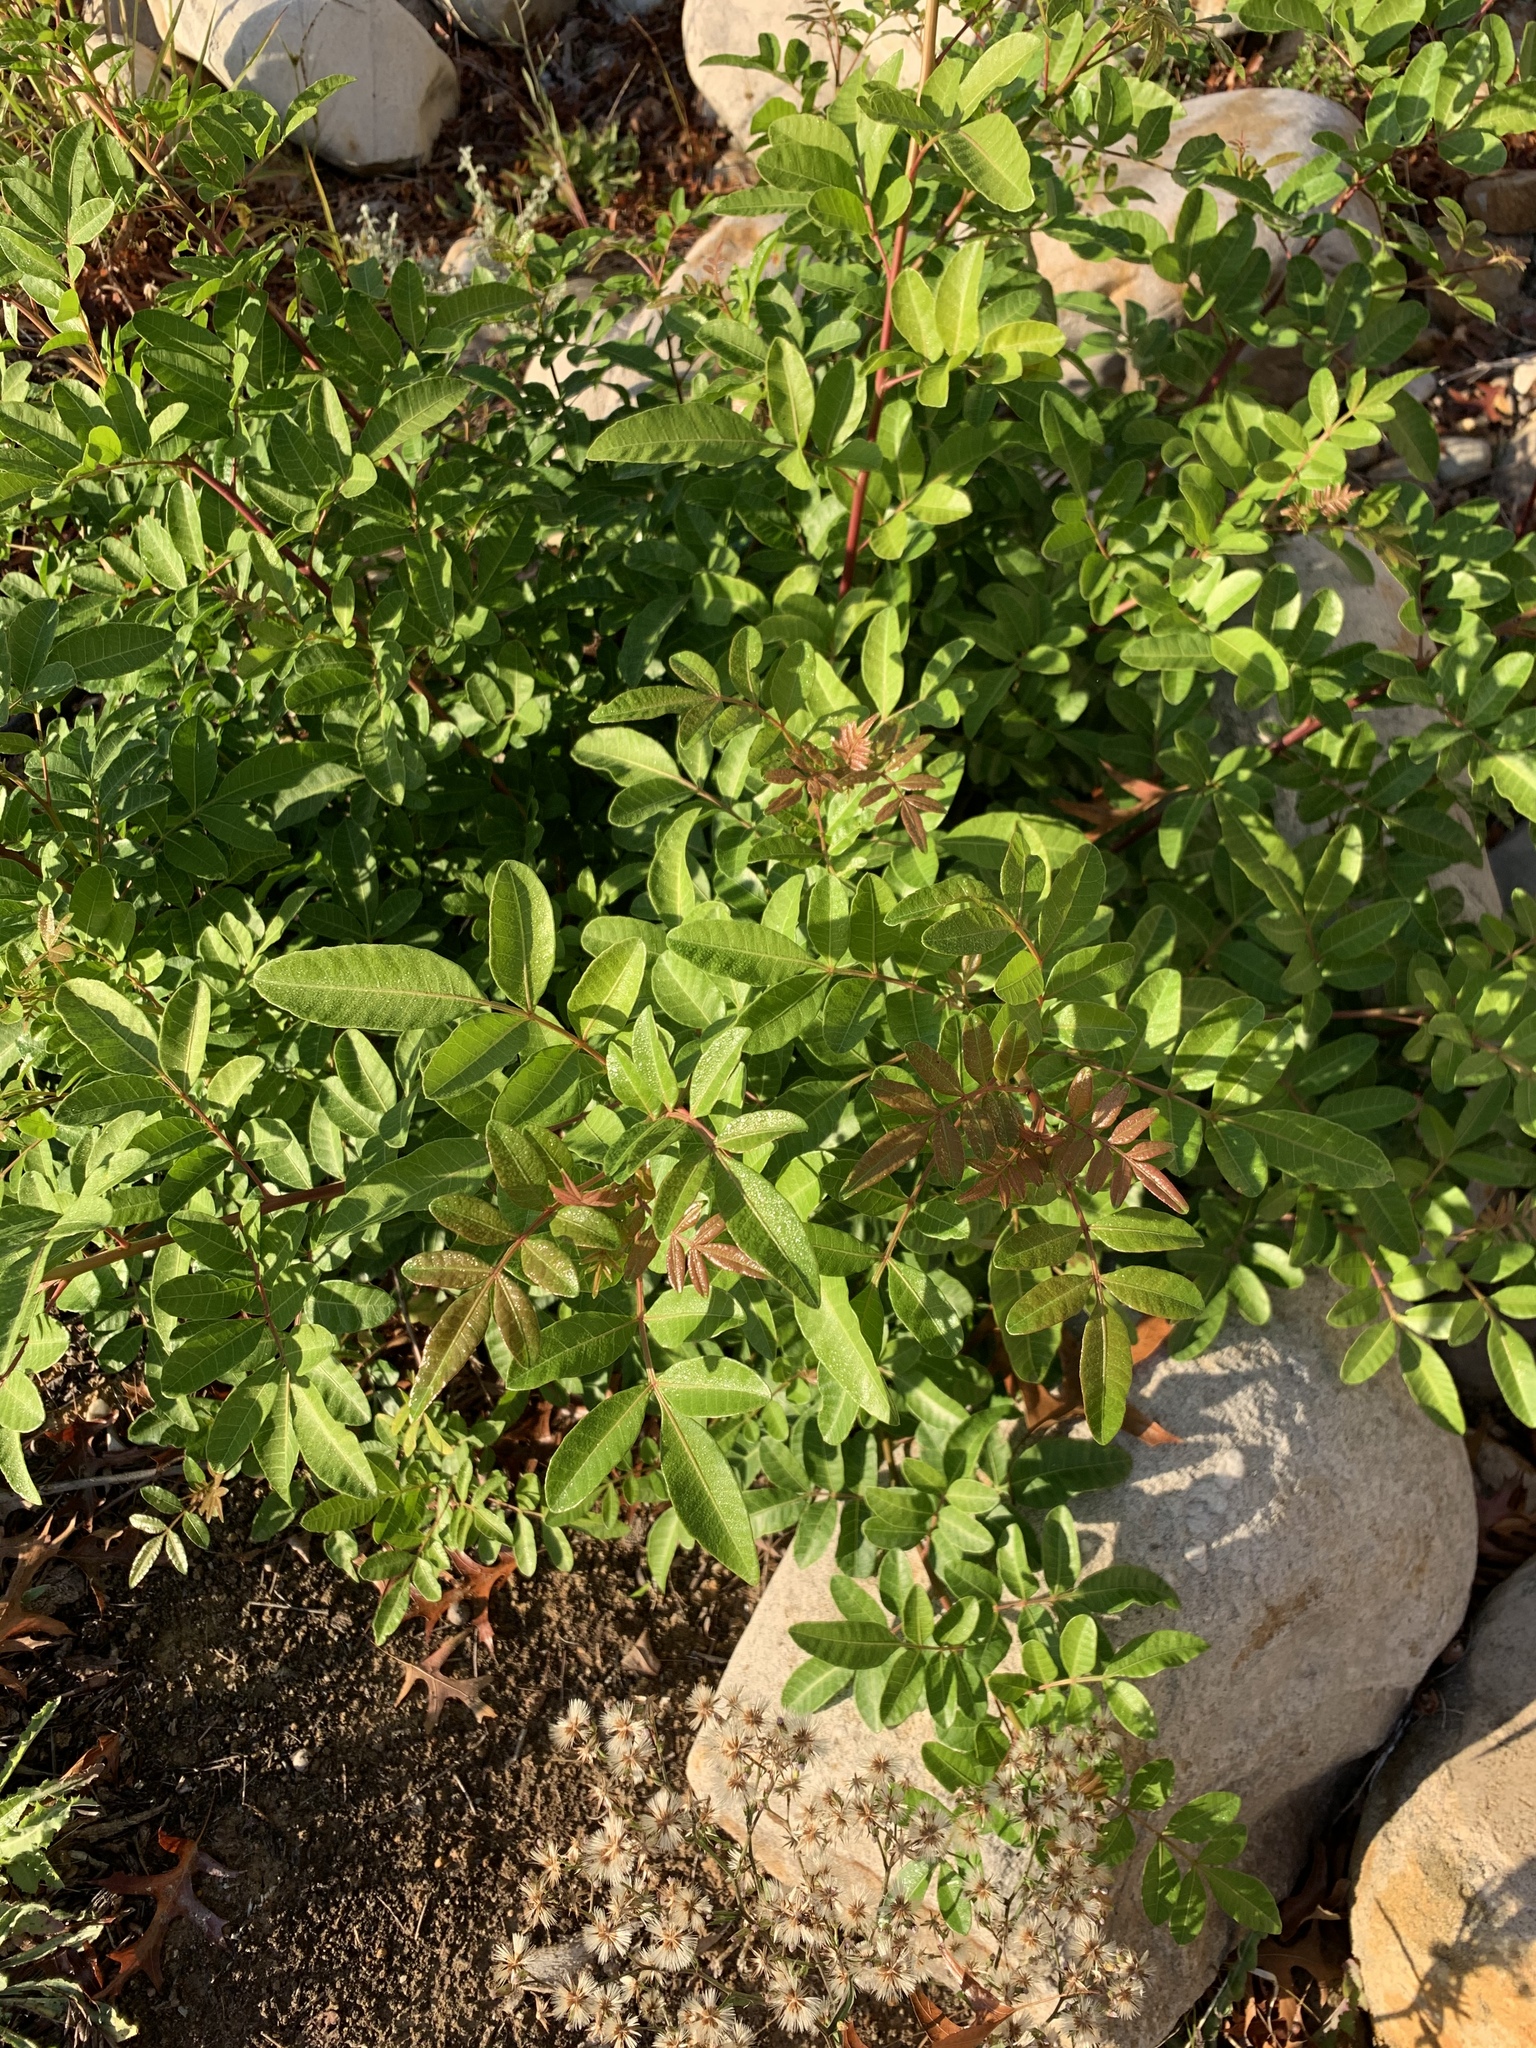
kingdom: Plantae
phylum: Tracheophyta
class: Magnoliopsida
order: Sapindales
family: Anacardiaceae
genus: Schinus
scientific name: Schinus terebinthifolia
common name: Brazilian peppertree
